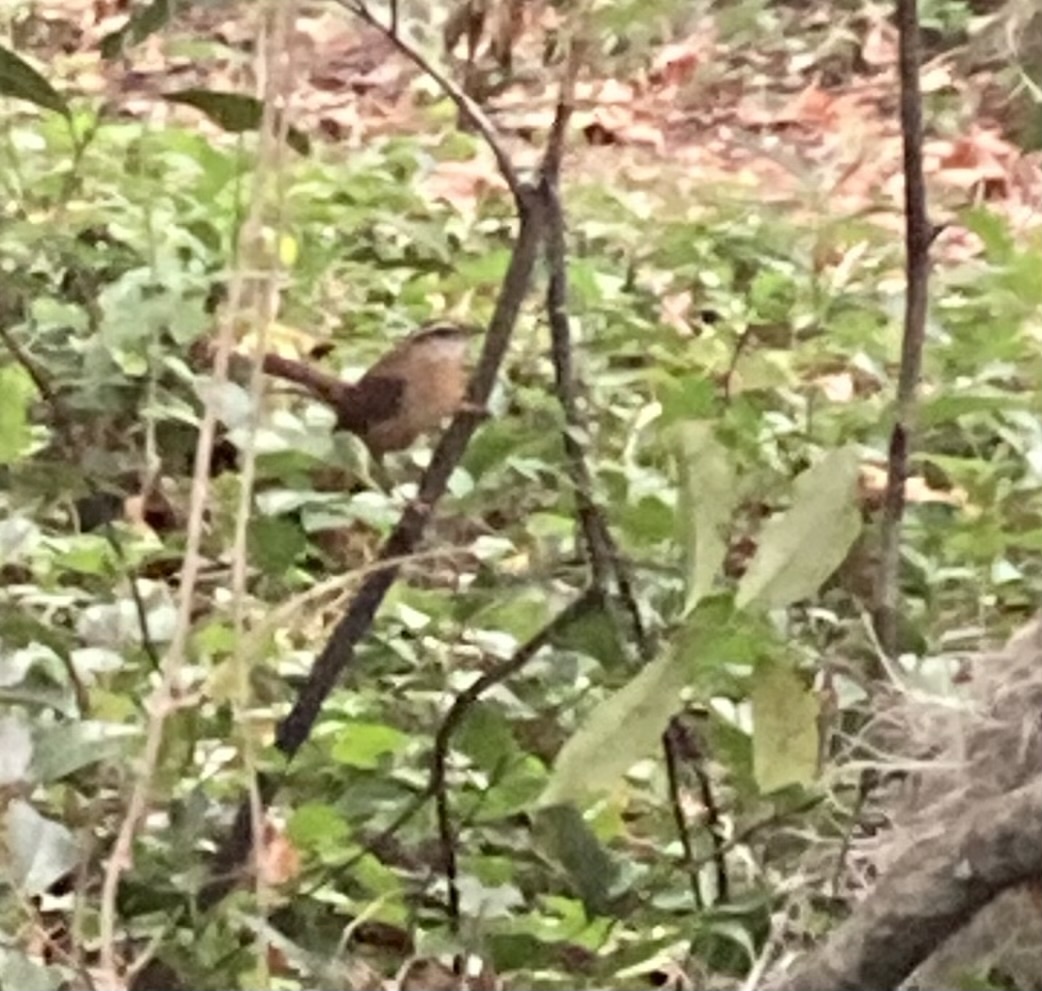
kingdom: Animalia
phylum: Chordata
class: Aves
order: Passeriformes
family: Troglodytidae
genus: Thryothorus
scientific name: Thryothorus ludovicianus
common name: Carolina wren
